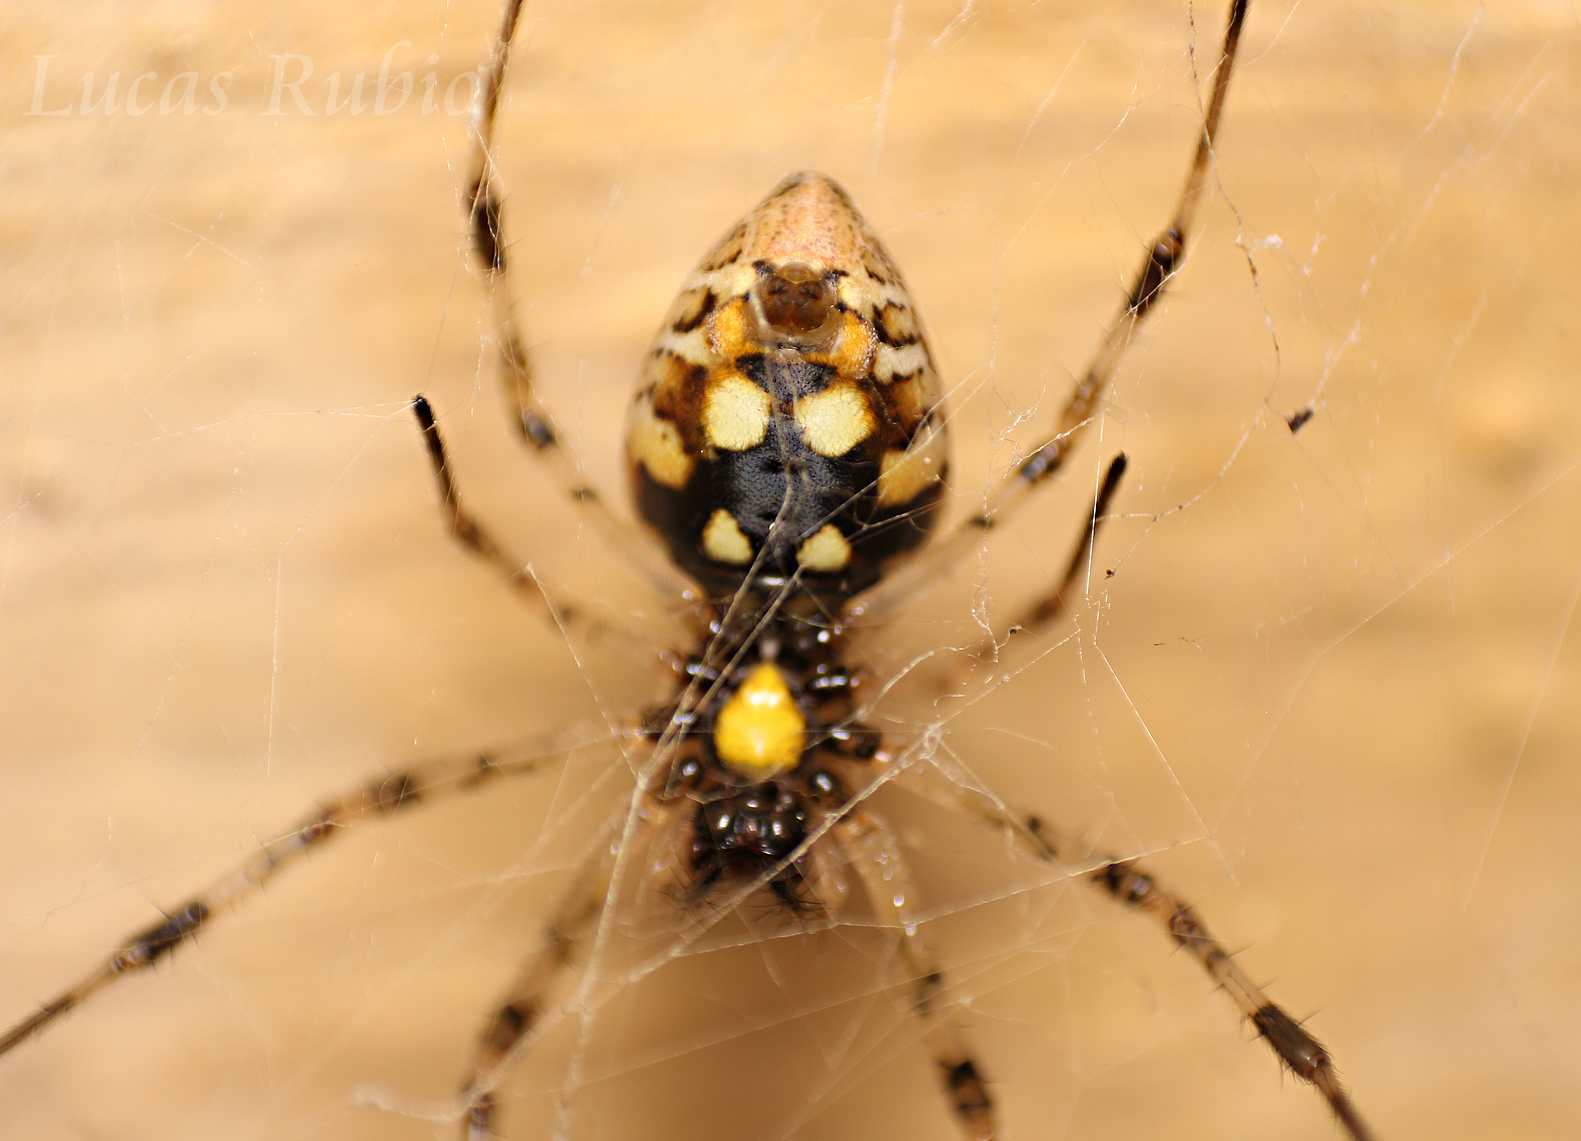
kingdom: Animalia
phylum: Arthropoda
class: Arachnida
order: Araneae
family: Araneidae
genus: Nephilingis
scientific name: Nephilingis cruentata
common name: African hermit spider
